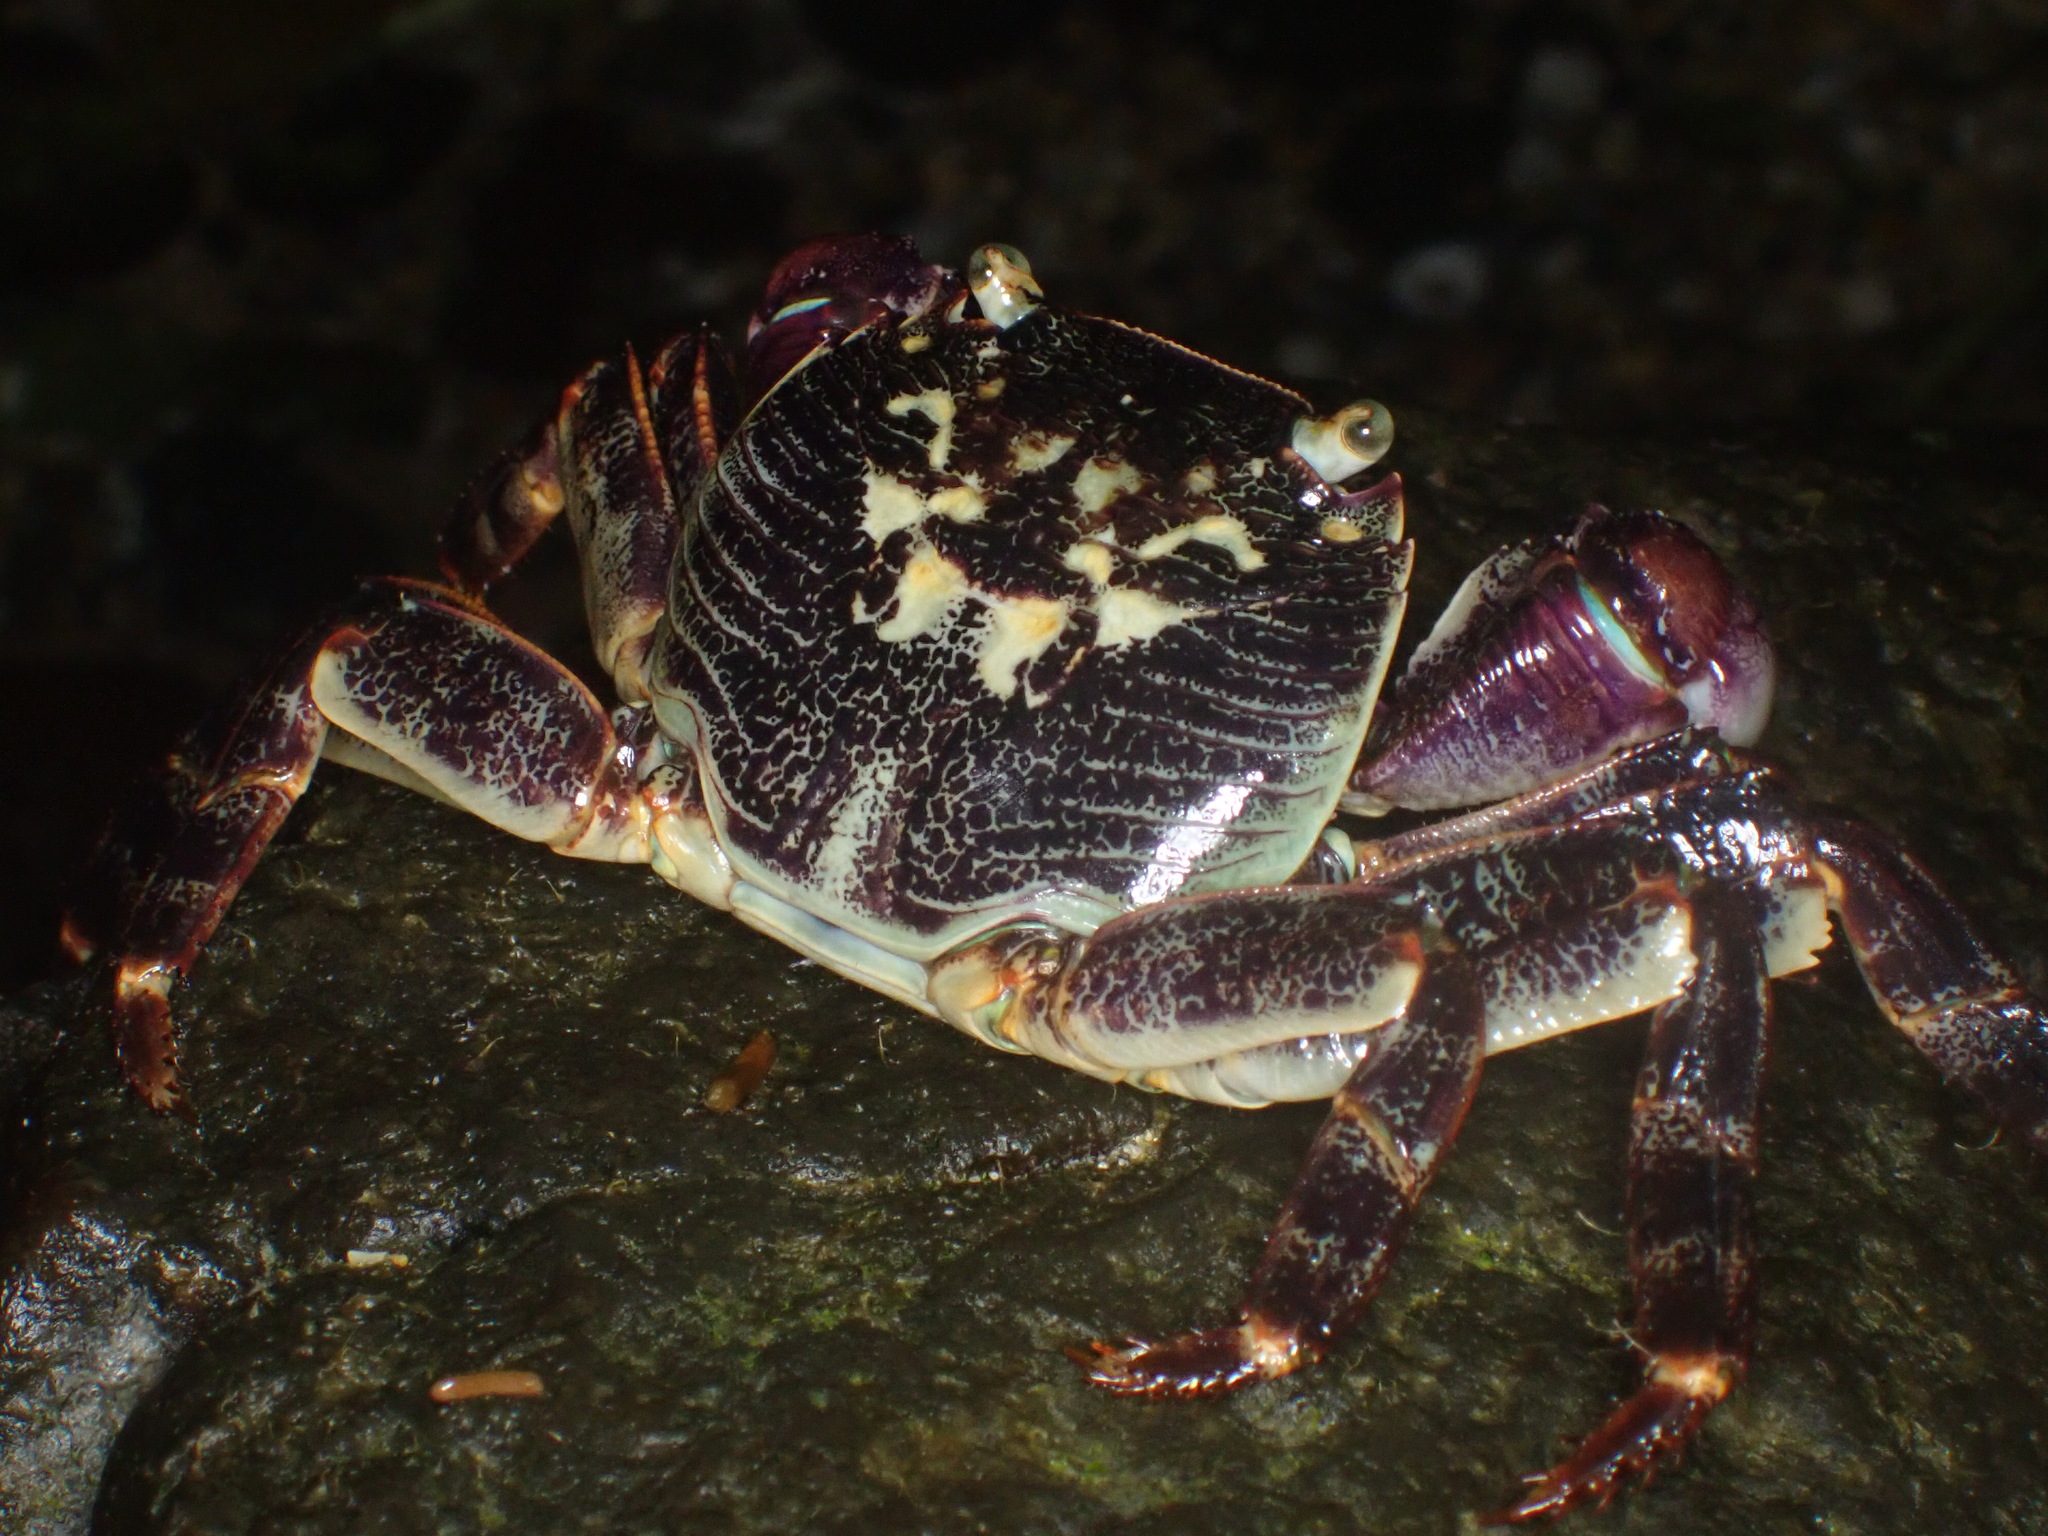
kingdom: Animalia
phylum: Arthropoda
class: Malacostraca
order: Decapoda
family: Grapsidae
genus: Leptograpsus
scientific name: Leptograpsus variegatus
